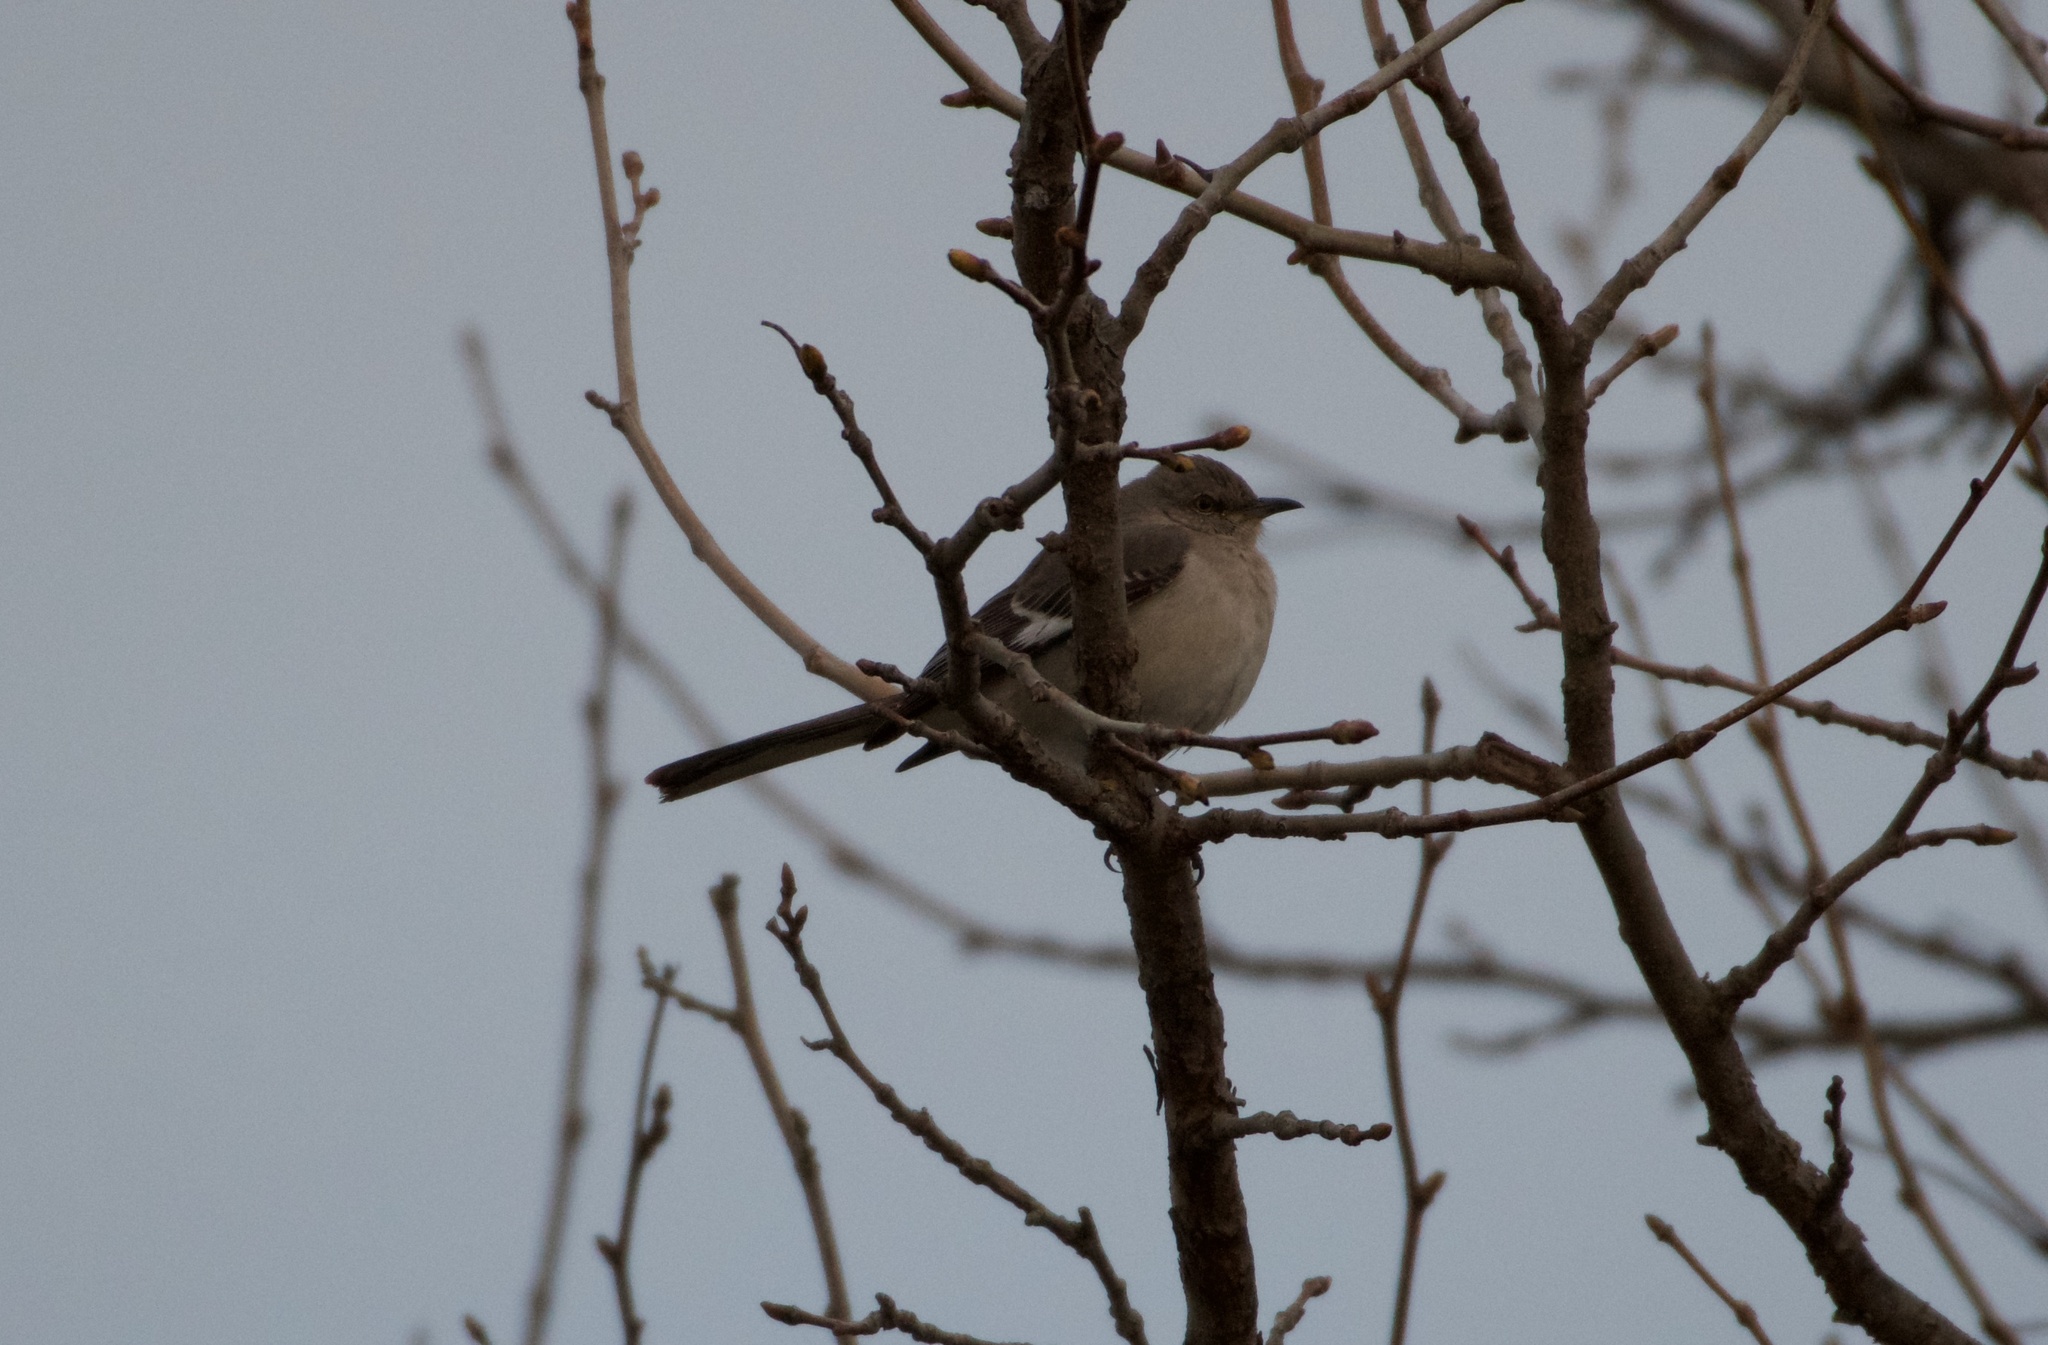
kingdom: Animalia
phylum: Chordata
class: Aves
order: Passeriformes
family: Mimidae
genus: Mimus
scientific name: Mimus polyglottos
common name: Northern mockingbird
